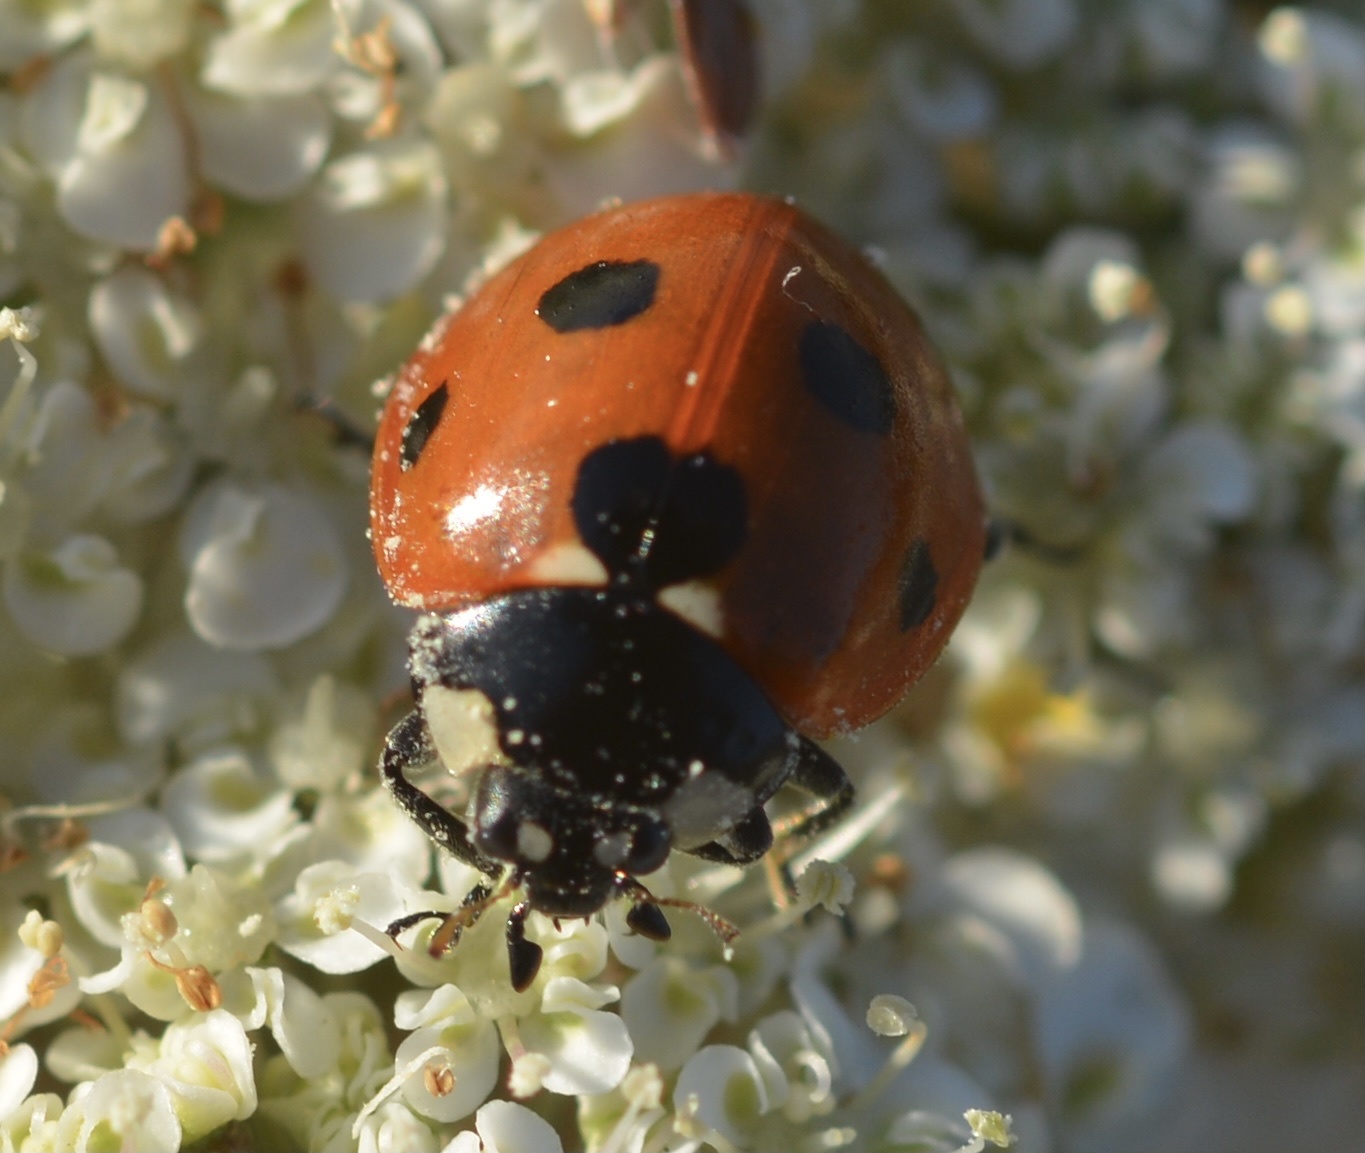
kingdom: Animalia
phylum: Arthropoda
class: Insecta
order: Coleoptera
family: Coccinellidae
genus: Coccinella
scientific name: Coccinella septempunctata
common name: Sevenspotted lady beetle
